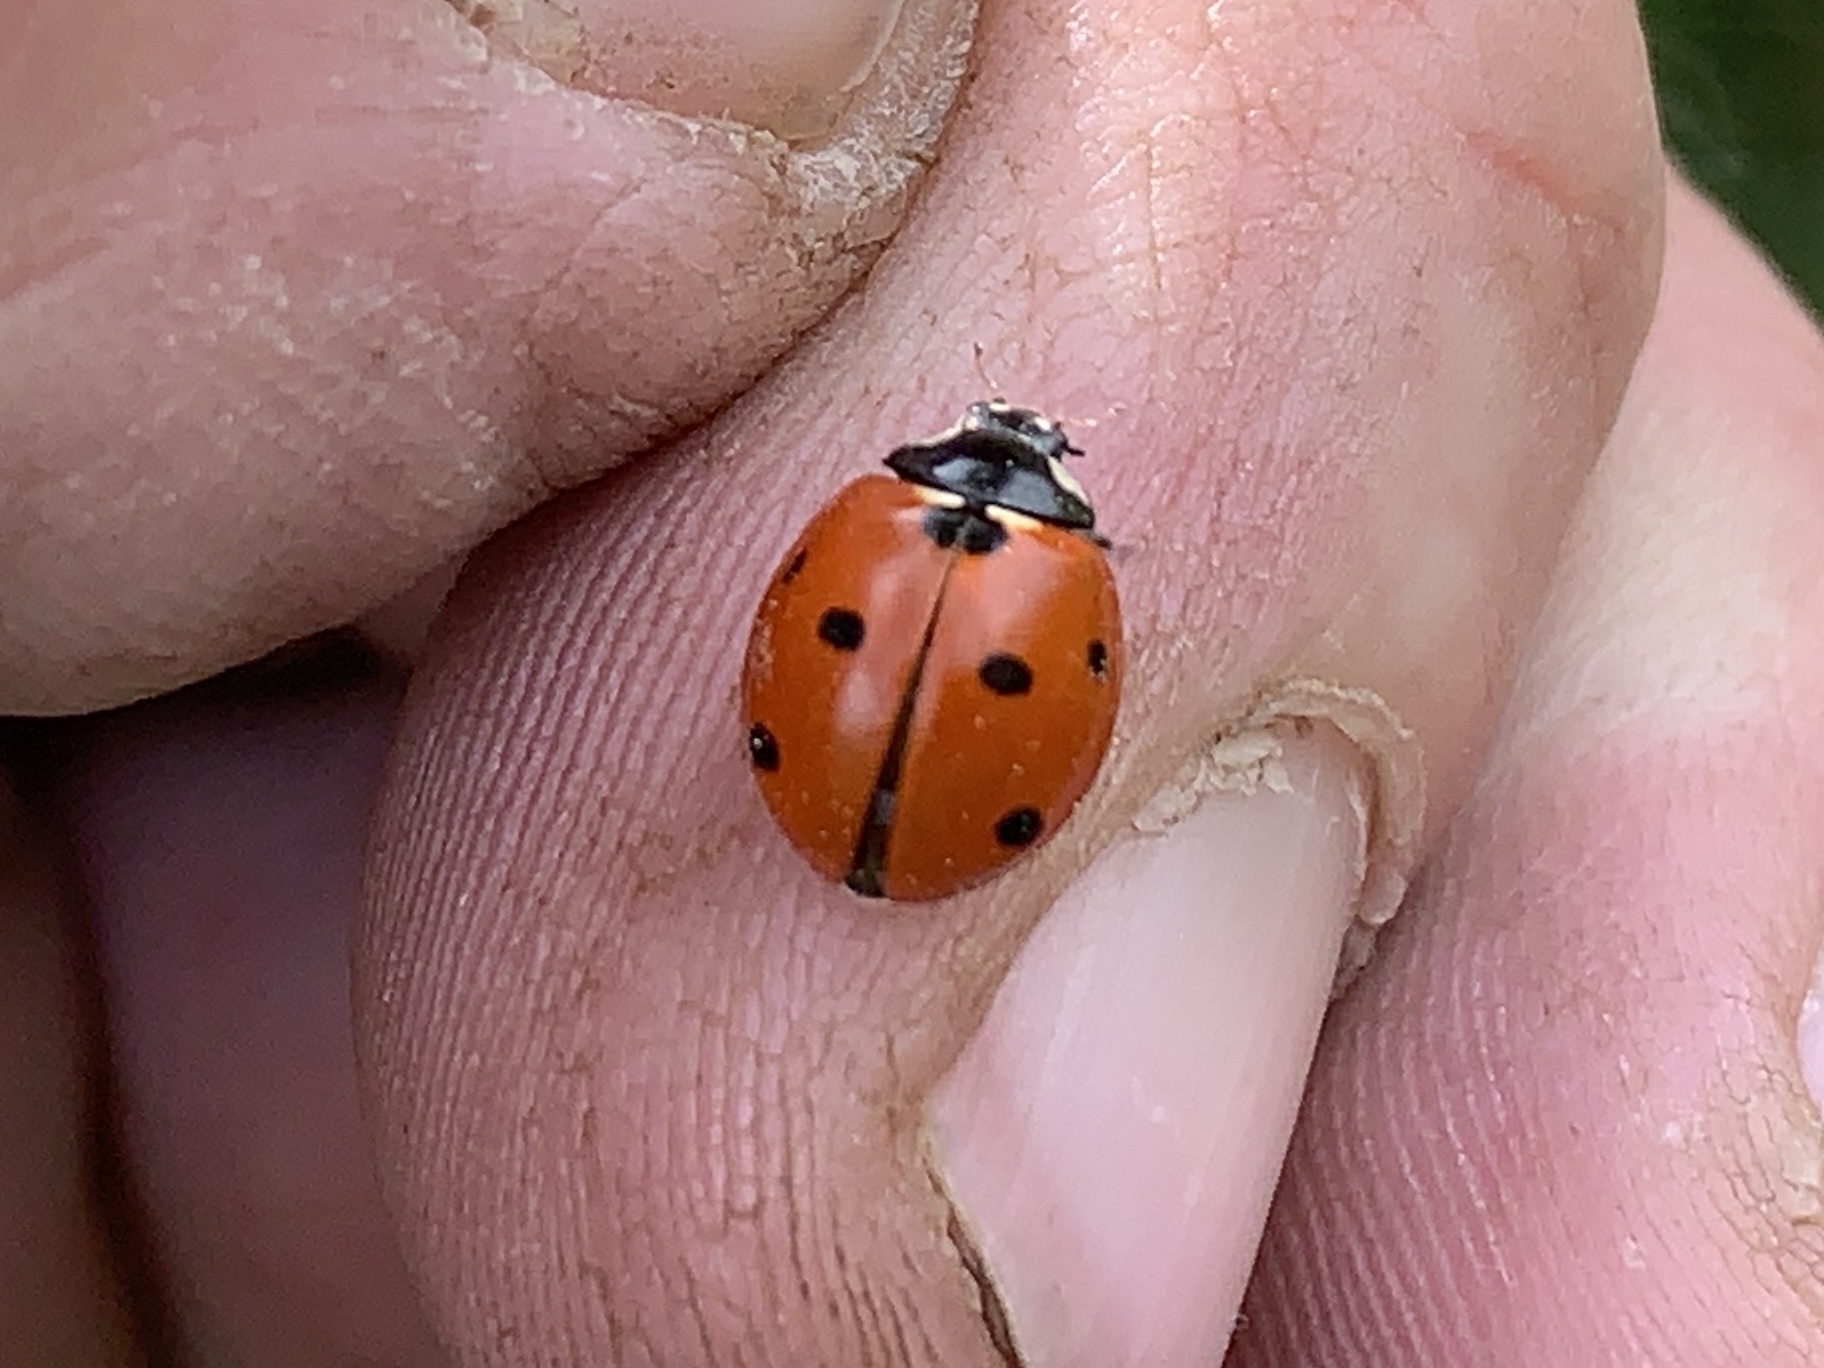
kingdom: Animalia
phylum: Arthropoda
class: Insecta
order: Coleoptera
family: Coccinellidae
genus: Coccinella
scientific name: Coccinella septempunctata
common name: Sevenspotted lady beetle
